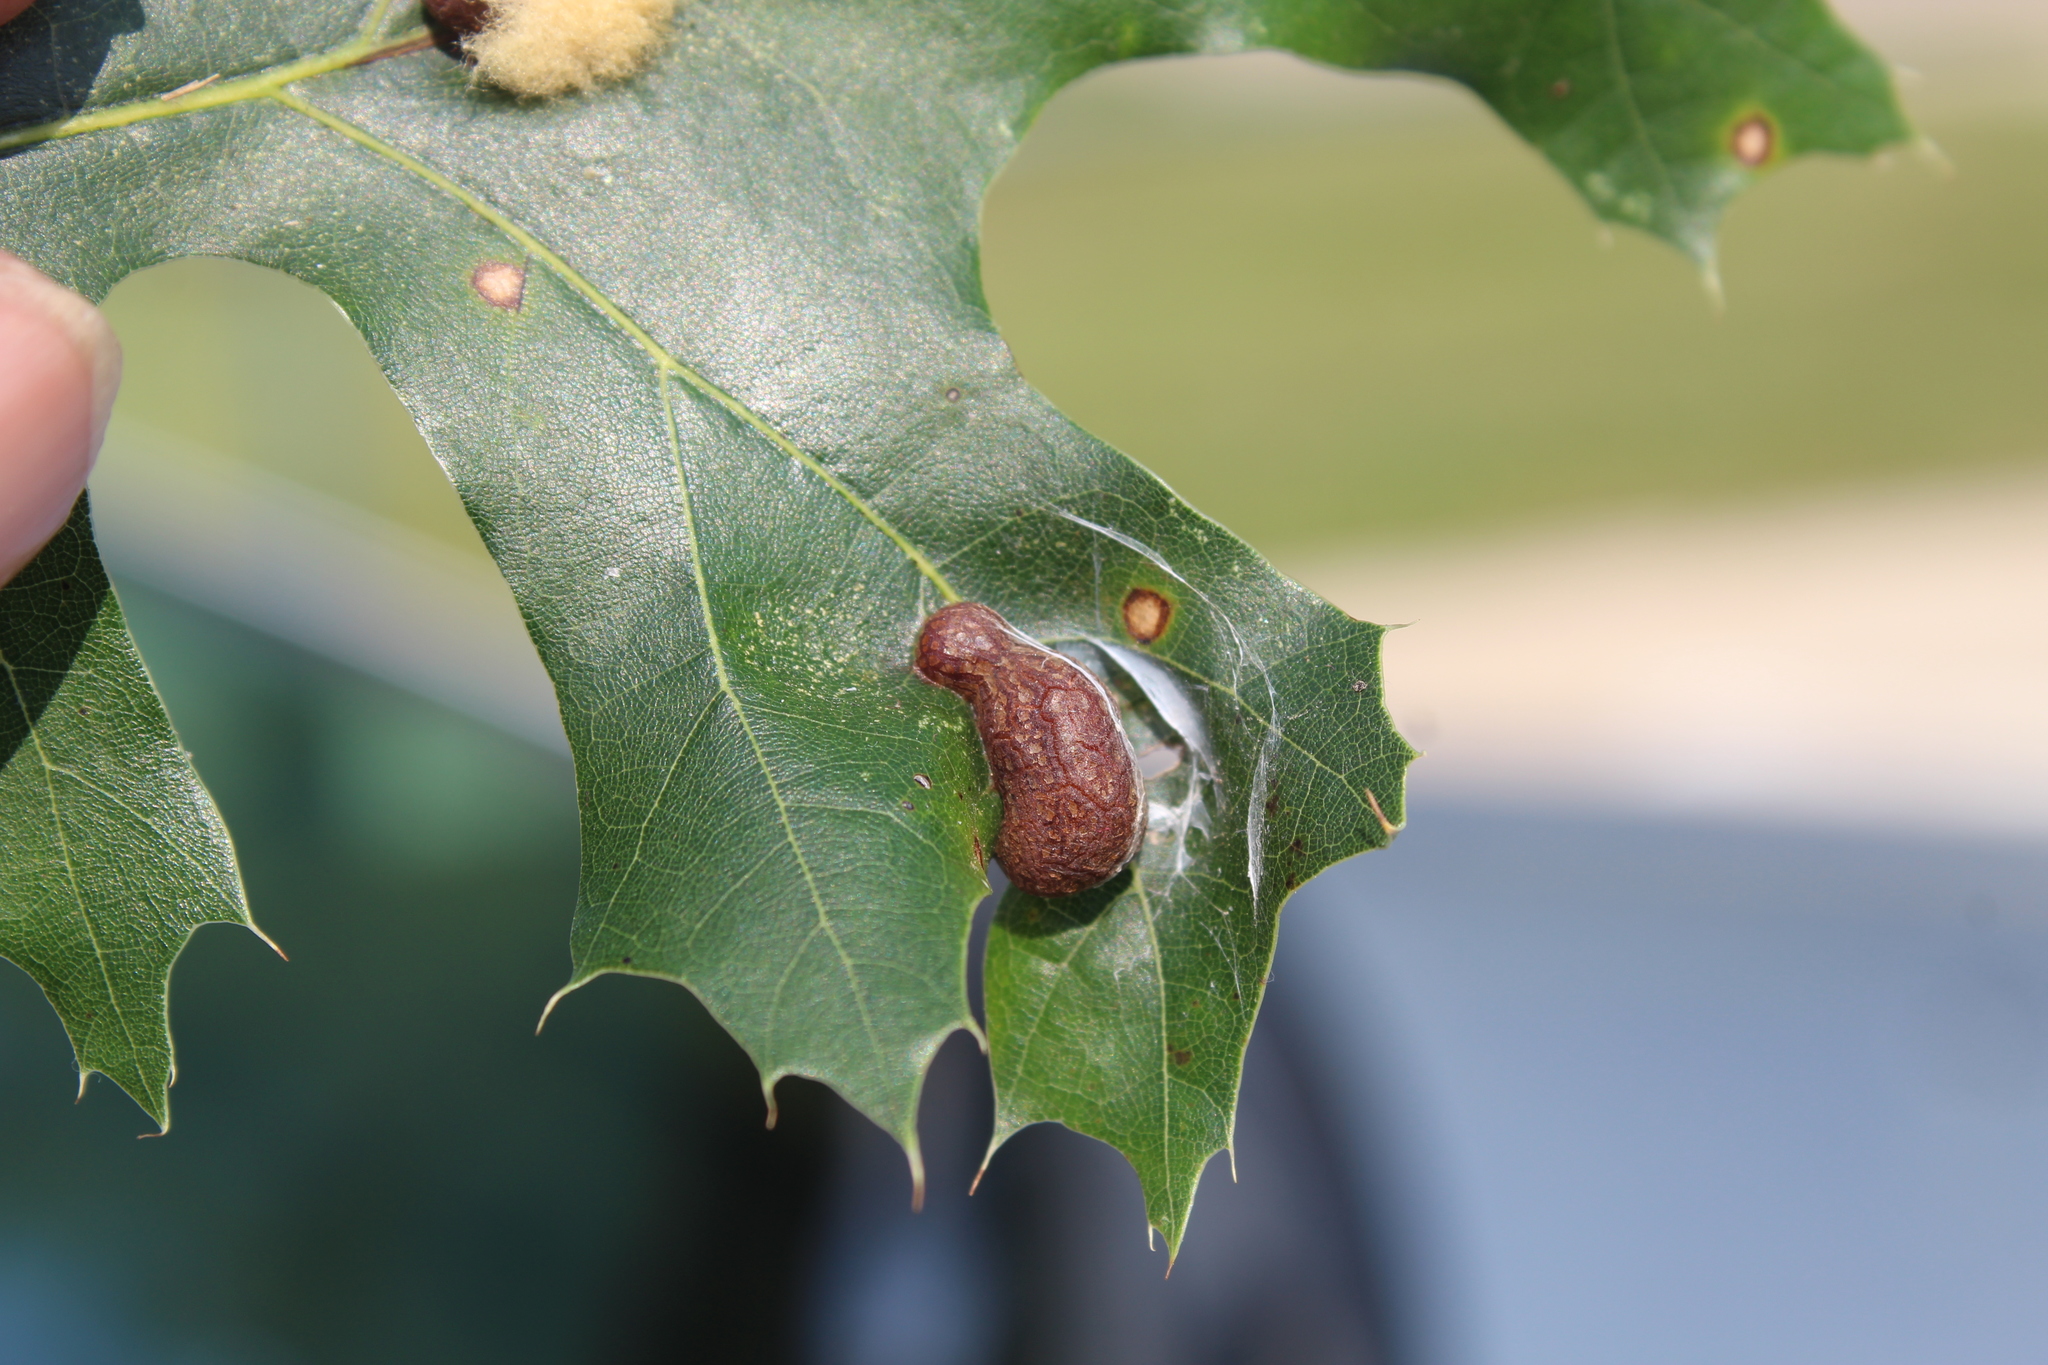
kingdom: Animalia
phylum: Arthropoda
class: Insecta
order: Diptera
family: Cecidomyiidae
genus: Polystepha
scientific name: Polystepha pilulae
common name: Oak leaf gall midge
